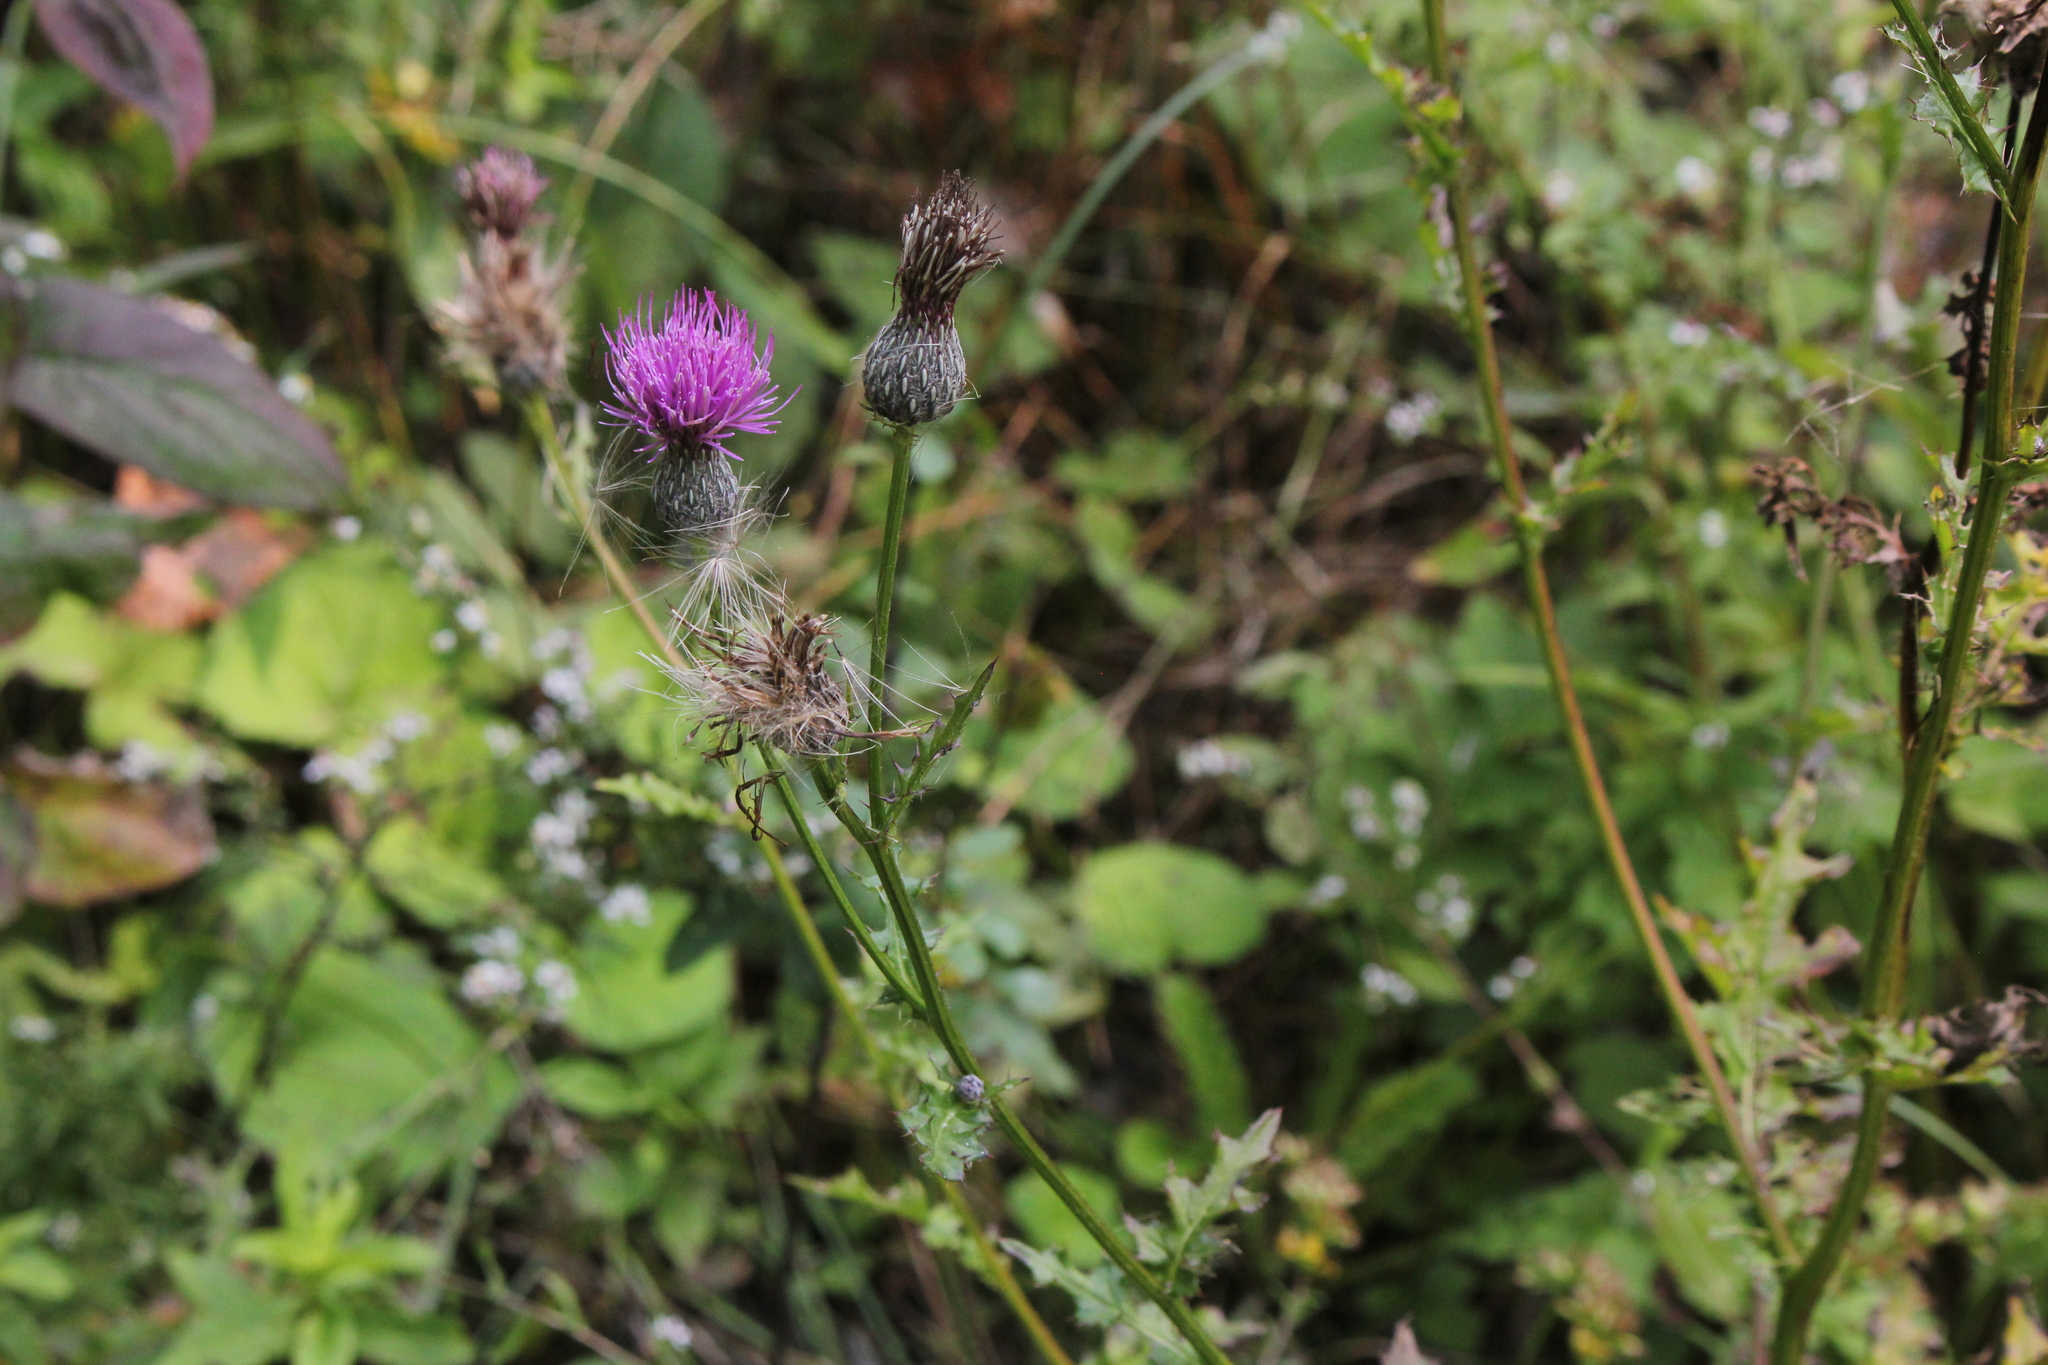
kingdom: Plantae
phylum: Tracheophyta
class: Magnoliopsida
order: Asterales
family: Asteraceae
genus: Cirsium
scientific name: Cirsium muticum
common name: Dunce-nettle
